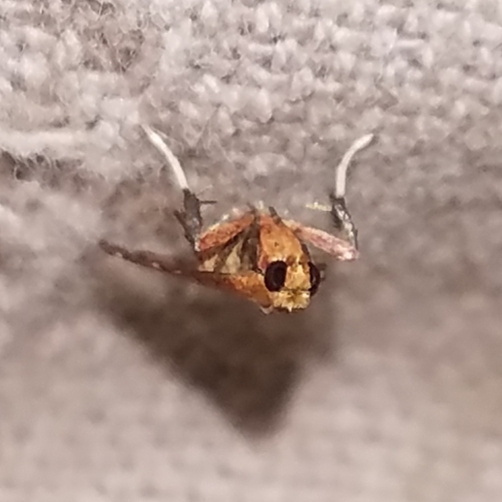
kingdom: Animalia
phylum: Arthropoda
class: Insecta
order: Lepidoptera
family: Pyralidae
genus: Arta
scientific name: Arta statalis
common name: Posturing arta moth
